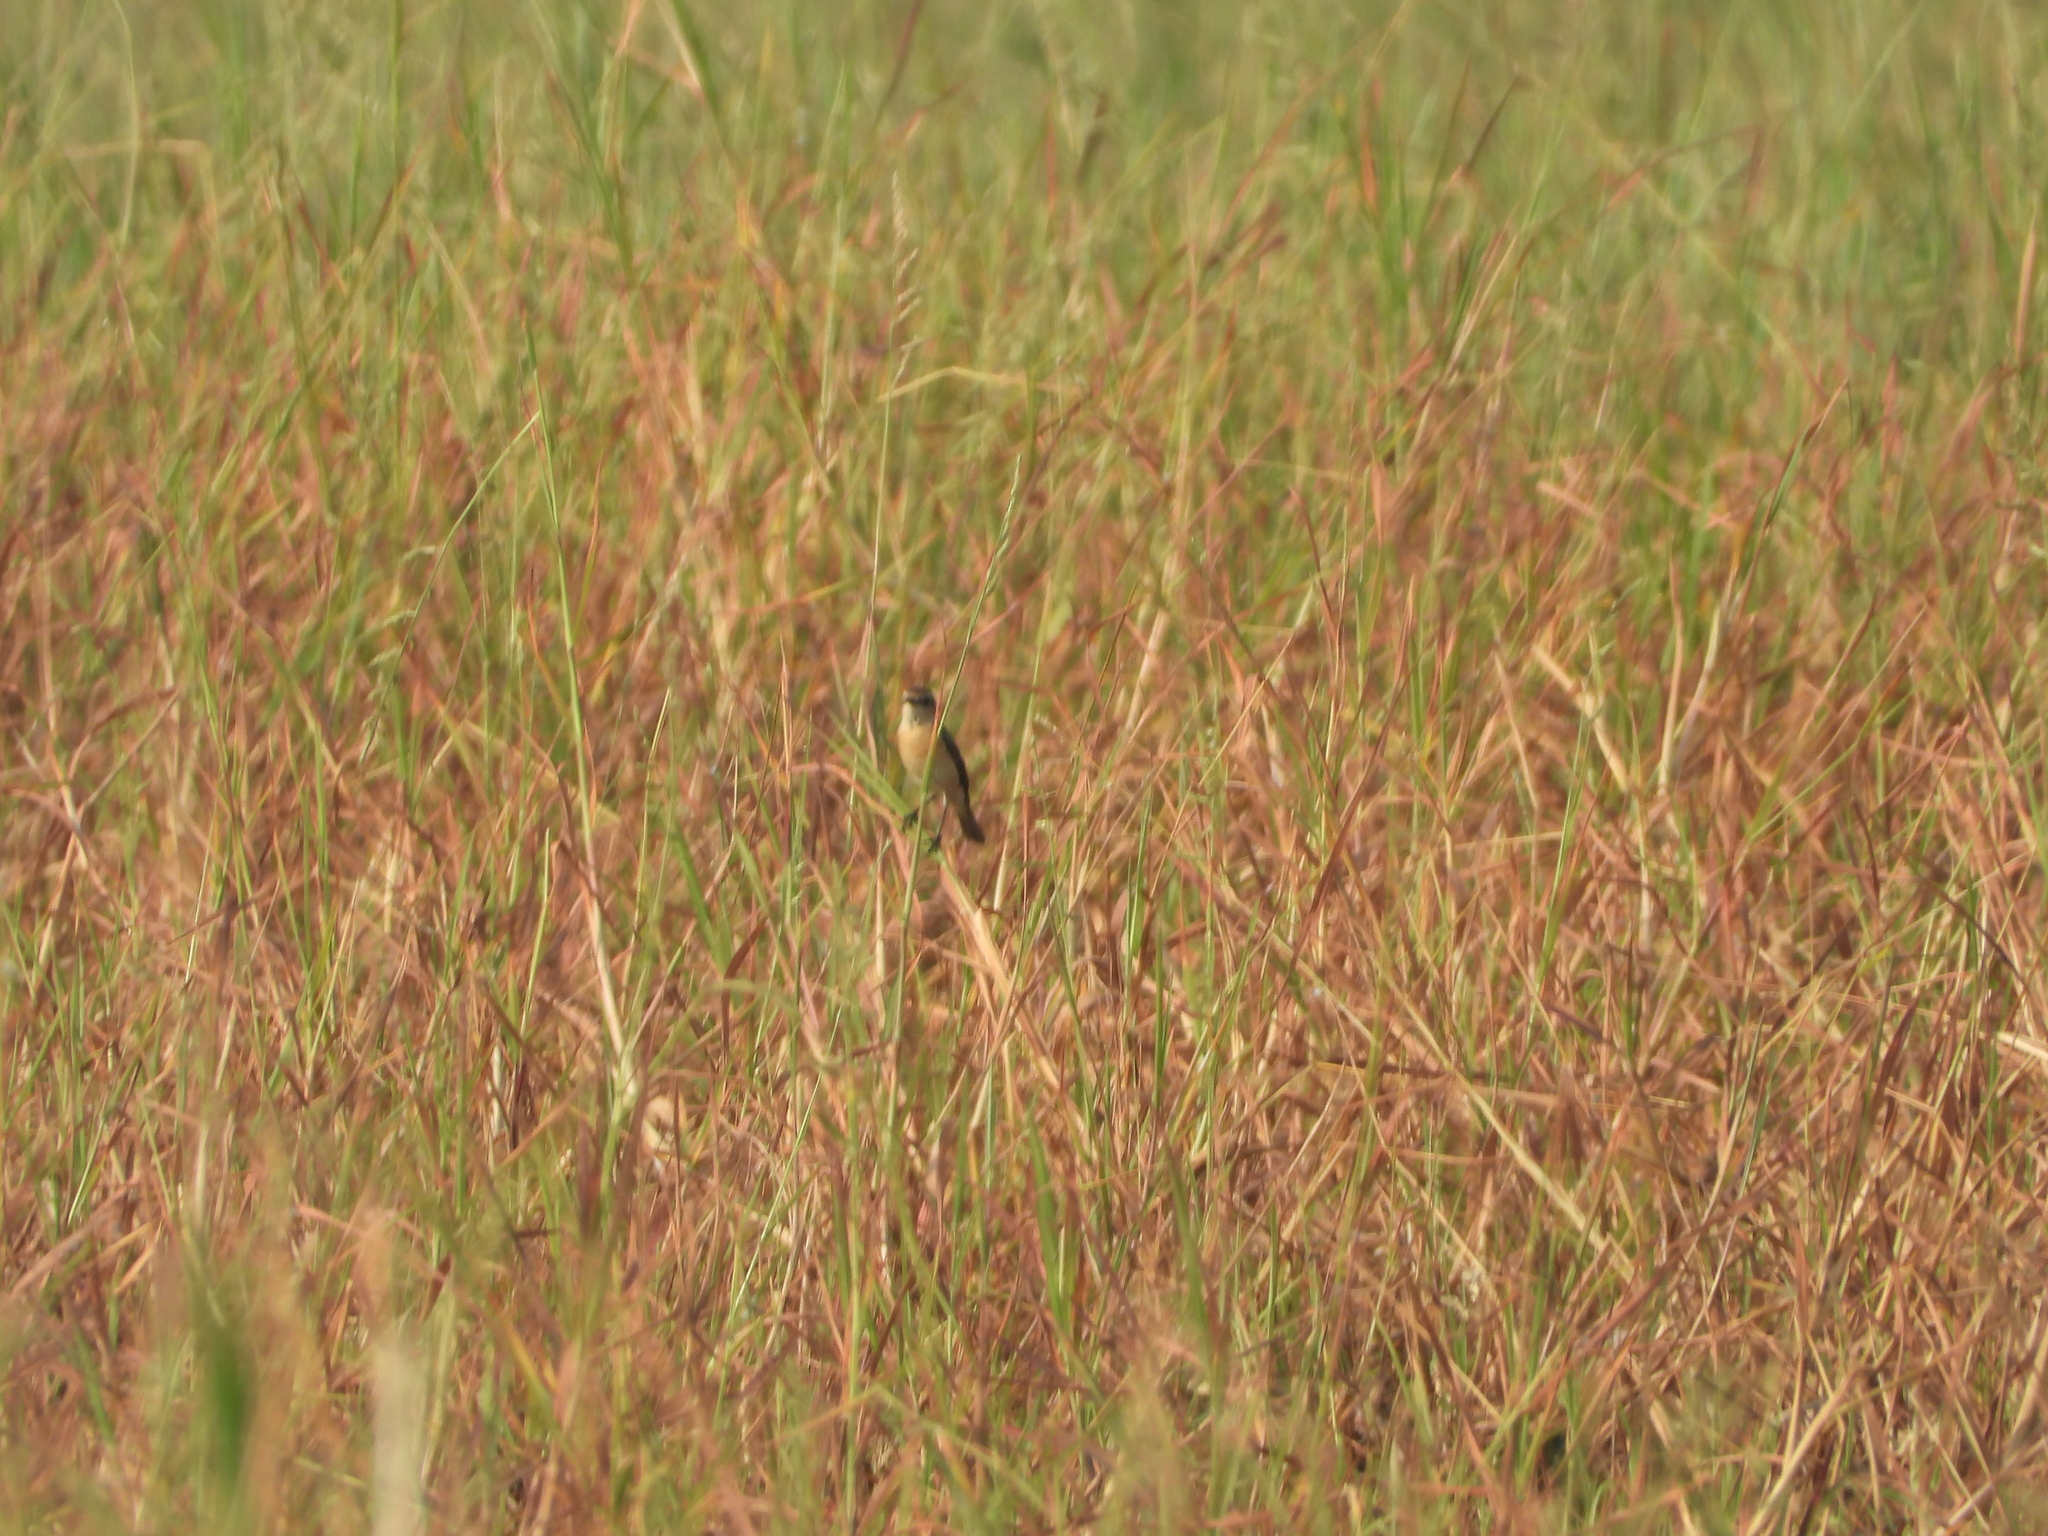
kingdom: Animalia
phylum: Chordata
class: Aves
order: Passeriformes
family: Muscicapidae
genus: Saxicola
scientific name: Saxicola stejnegeri
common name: Stejneger's stonechat
